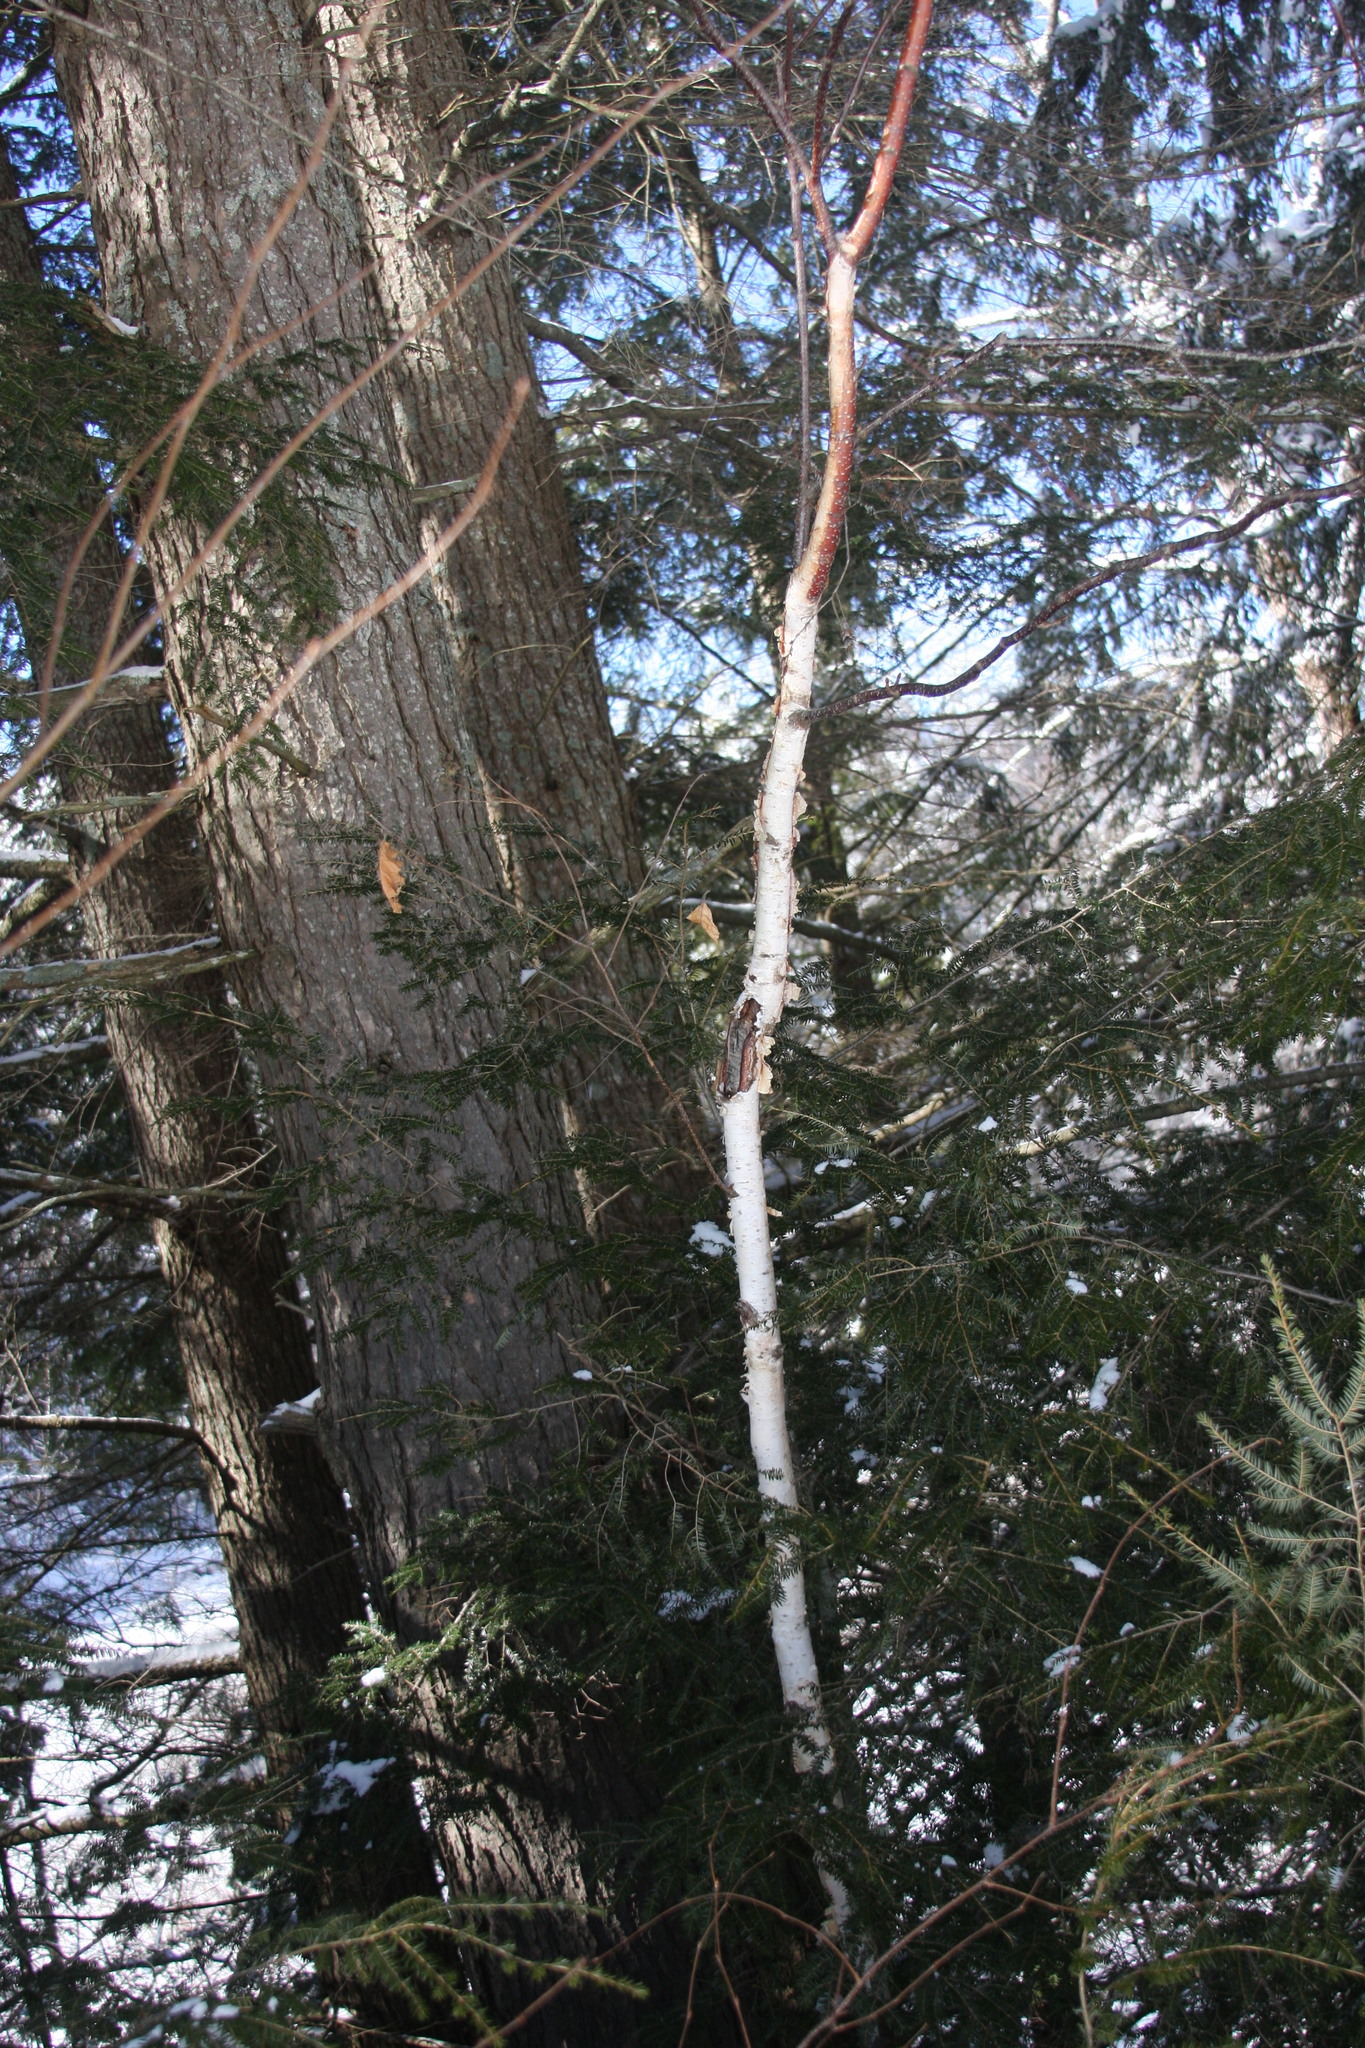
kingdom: Plantae
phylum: Tracheophyta
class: Magnoliopsida
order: Fagales
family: Betulaceae
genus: Betula
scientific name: Betula papyrifera
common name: Paper birch
